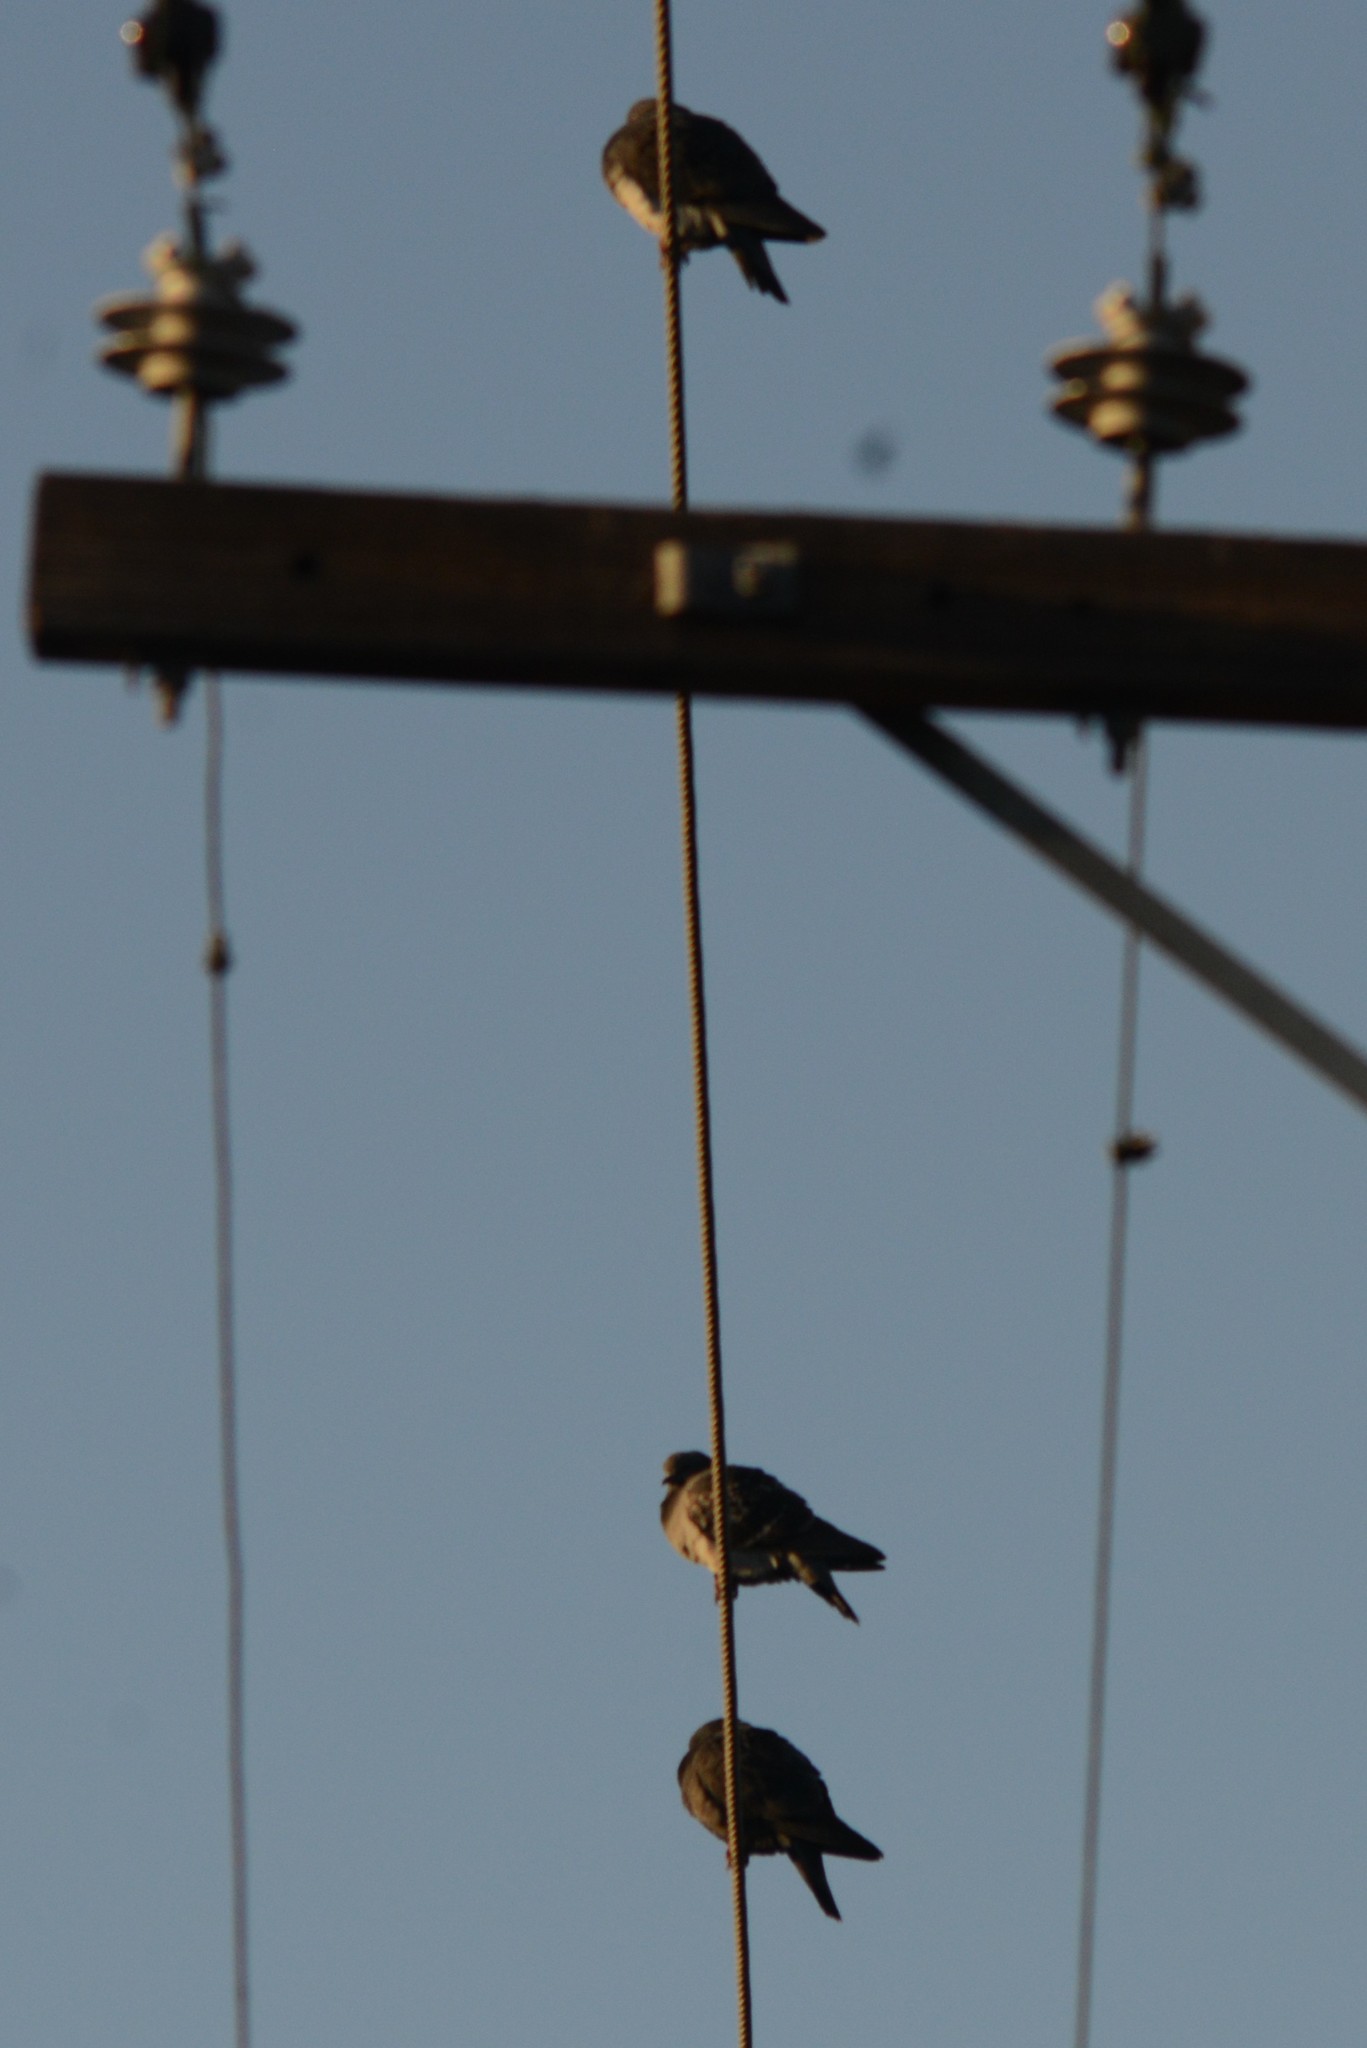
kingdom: Animalia
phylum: Chordata
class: Aves
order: Columbiformes
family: Columbidae
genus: Columba
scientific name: Columba livia
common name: Rock pigeon
